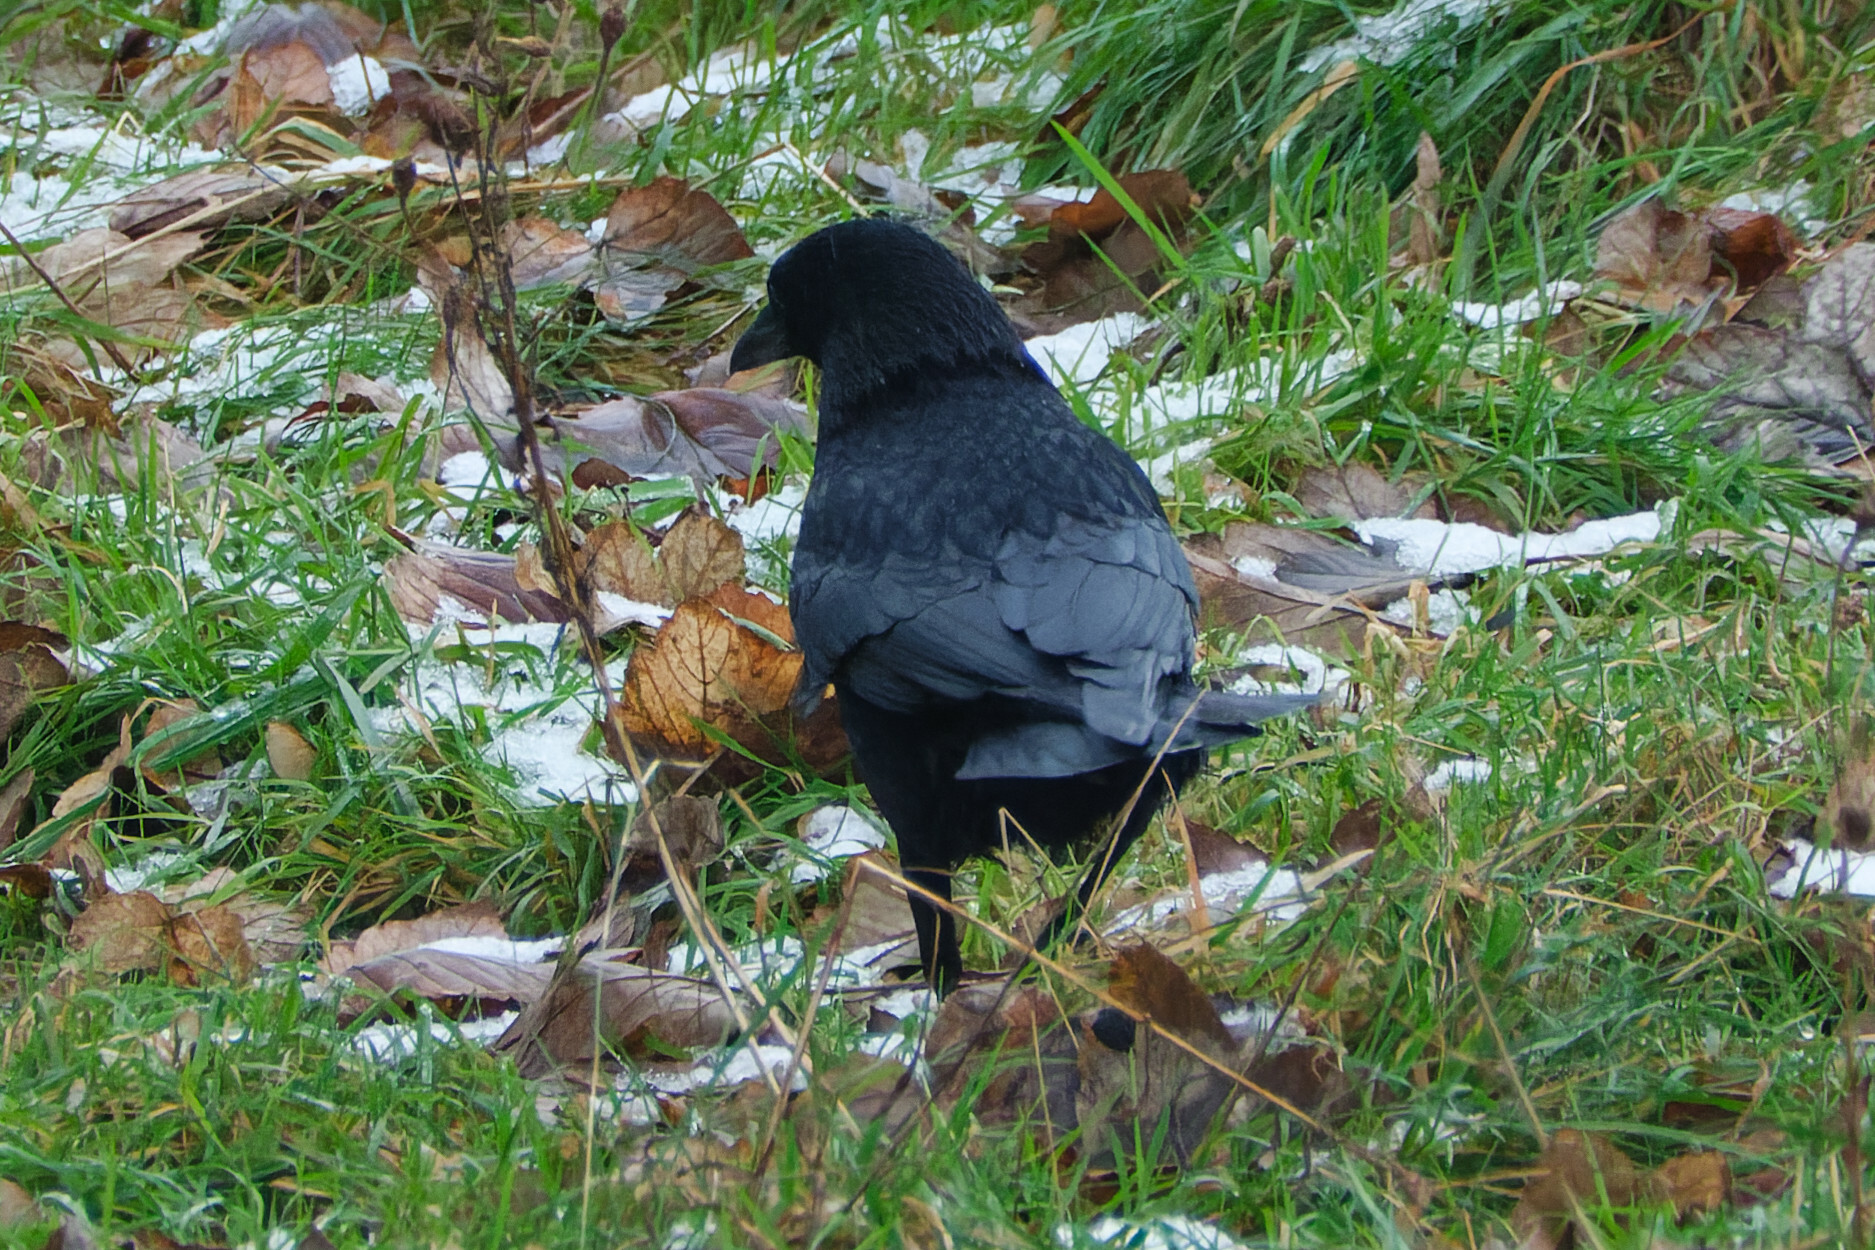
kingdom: Animalia
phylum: Chordata
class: Aves
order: Passeriformes
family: Corvidae
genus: Corvus
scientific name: Corvus corone
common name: Carrion crow
